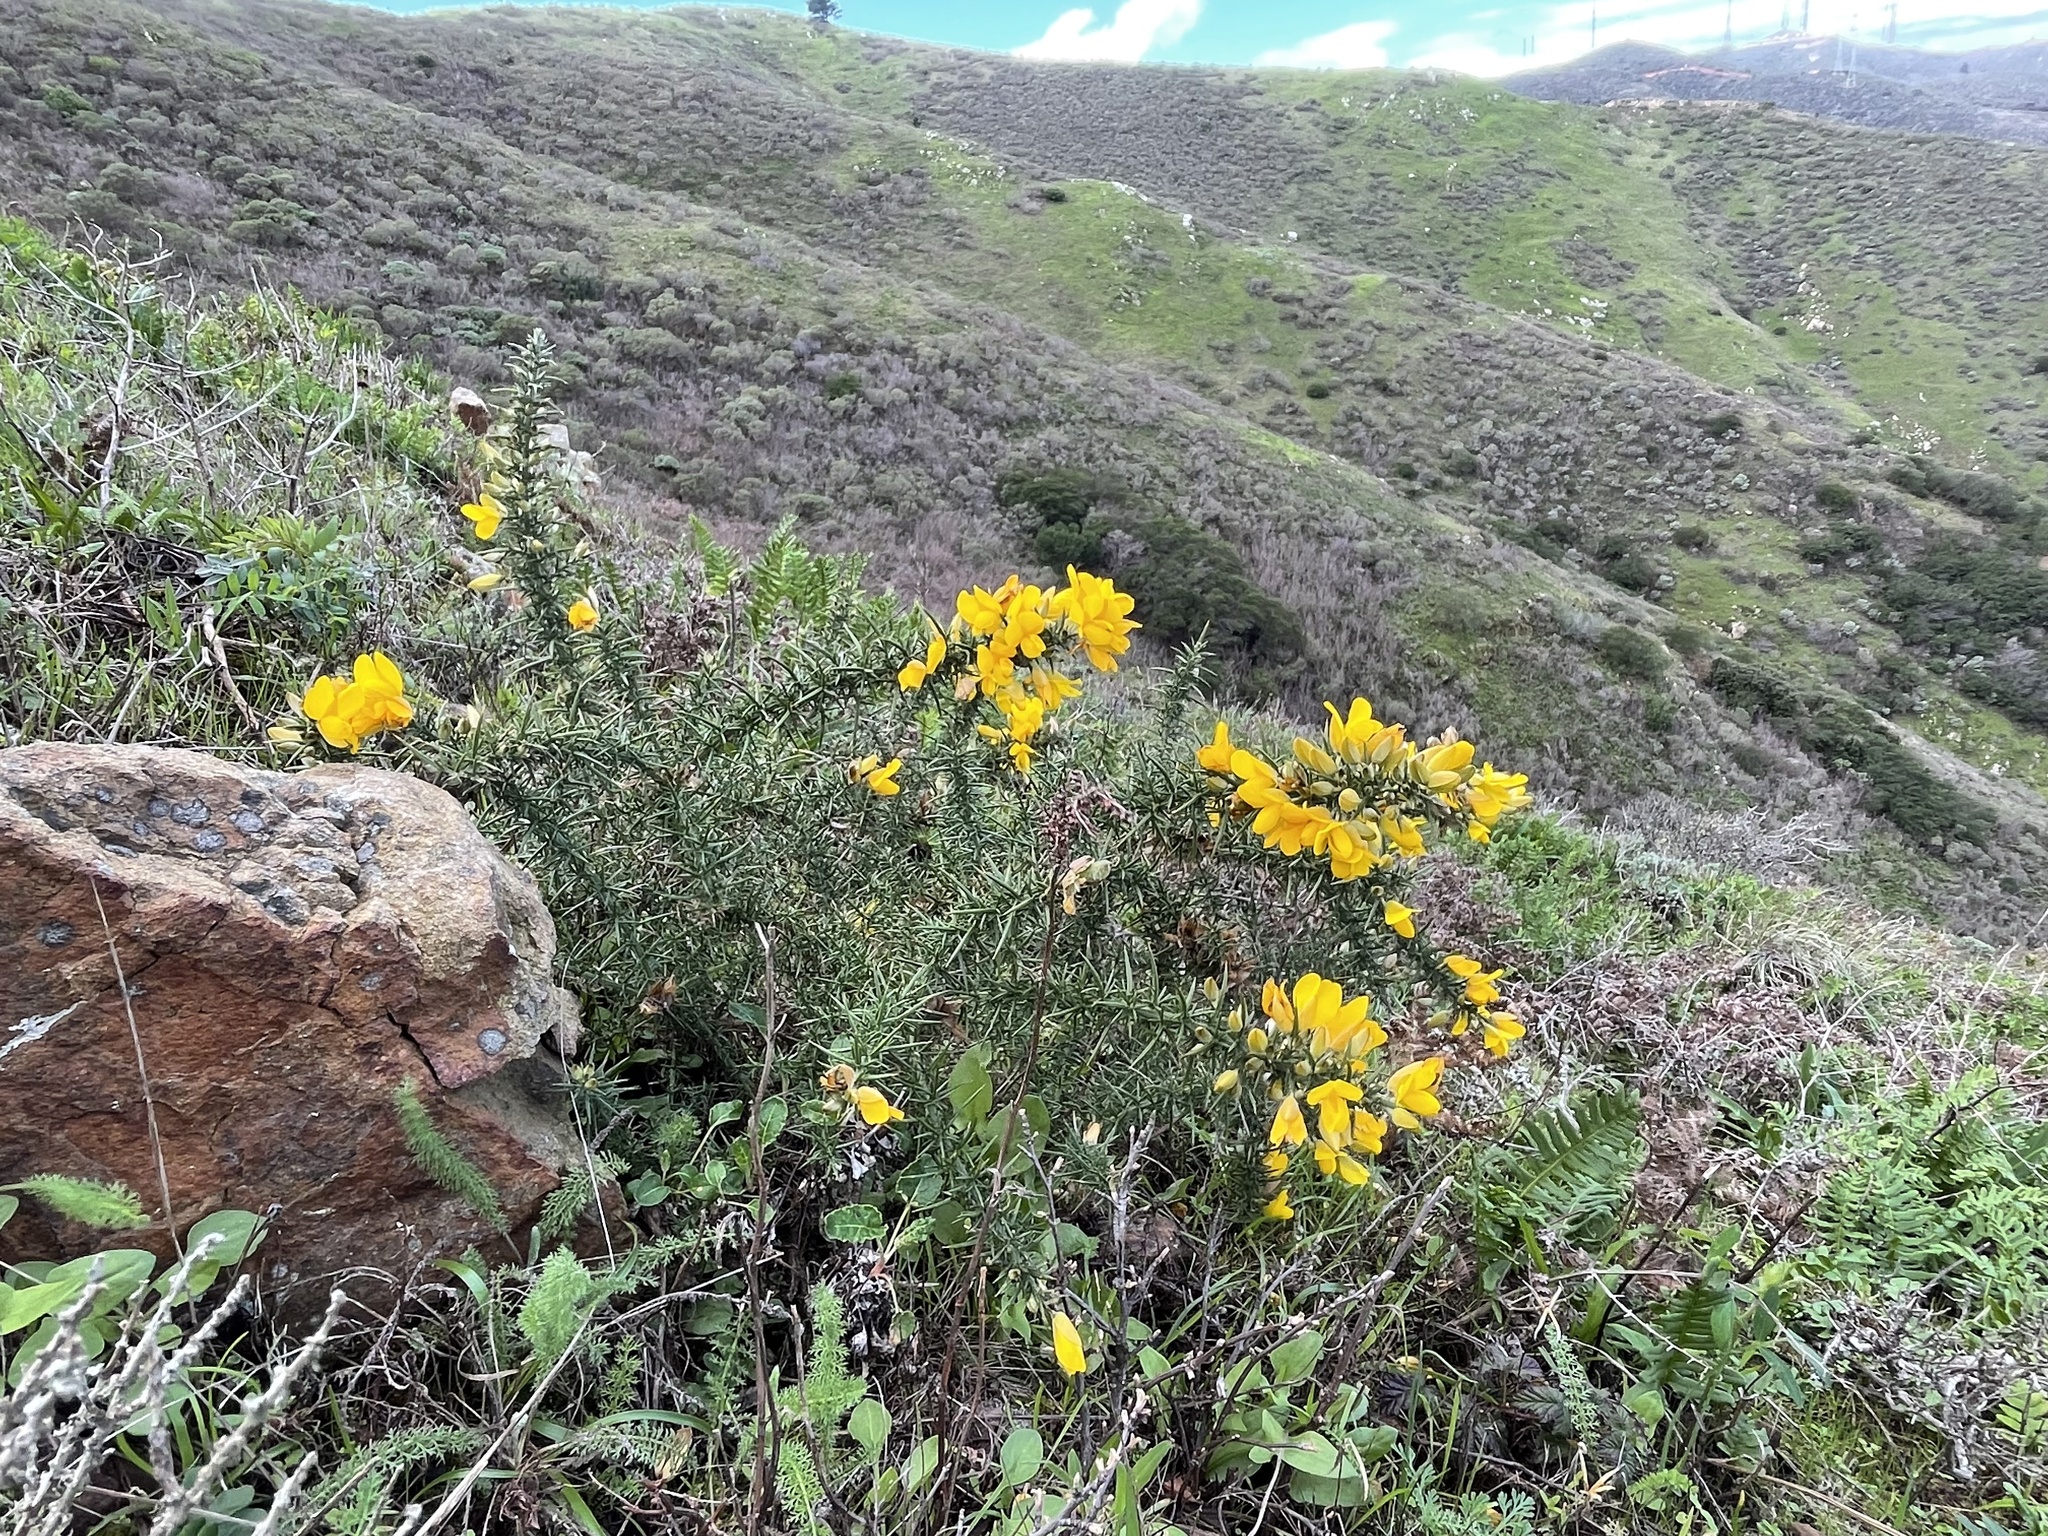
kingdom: Plantae
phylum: Tracheophyta
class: Magnoliopsida
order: Fabales
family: Fabaceae
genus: Ulex
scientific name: Ulex europaeus
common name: Common gorse
